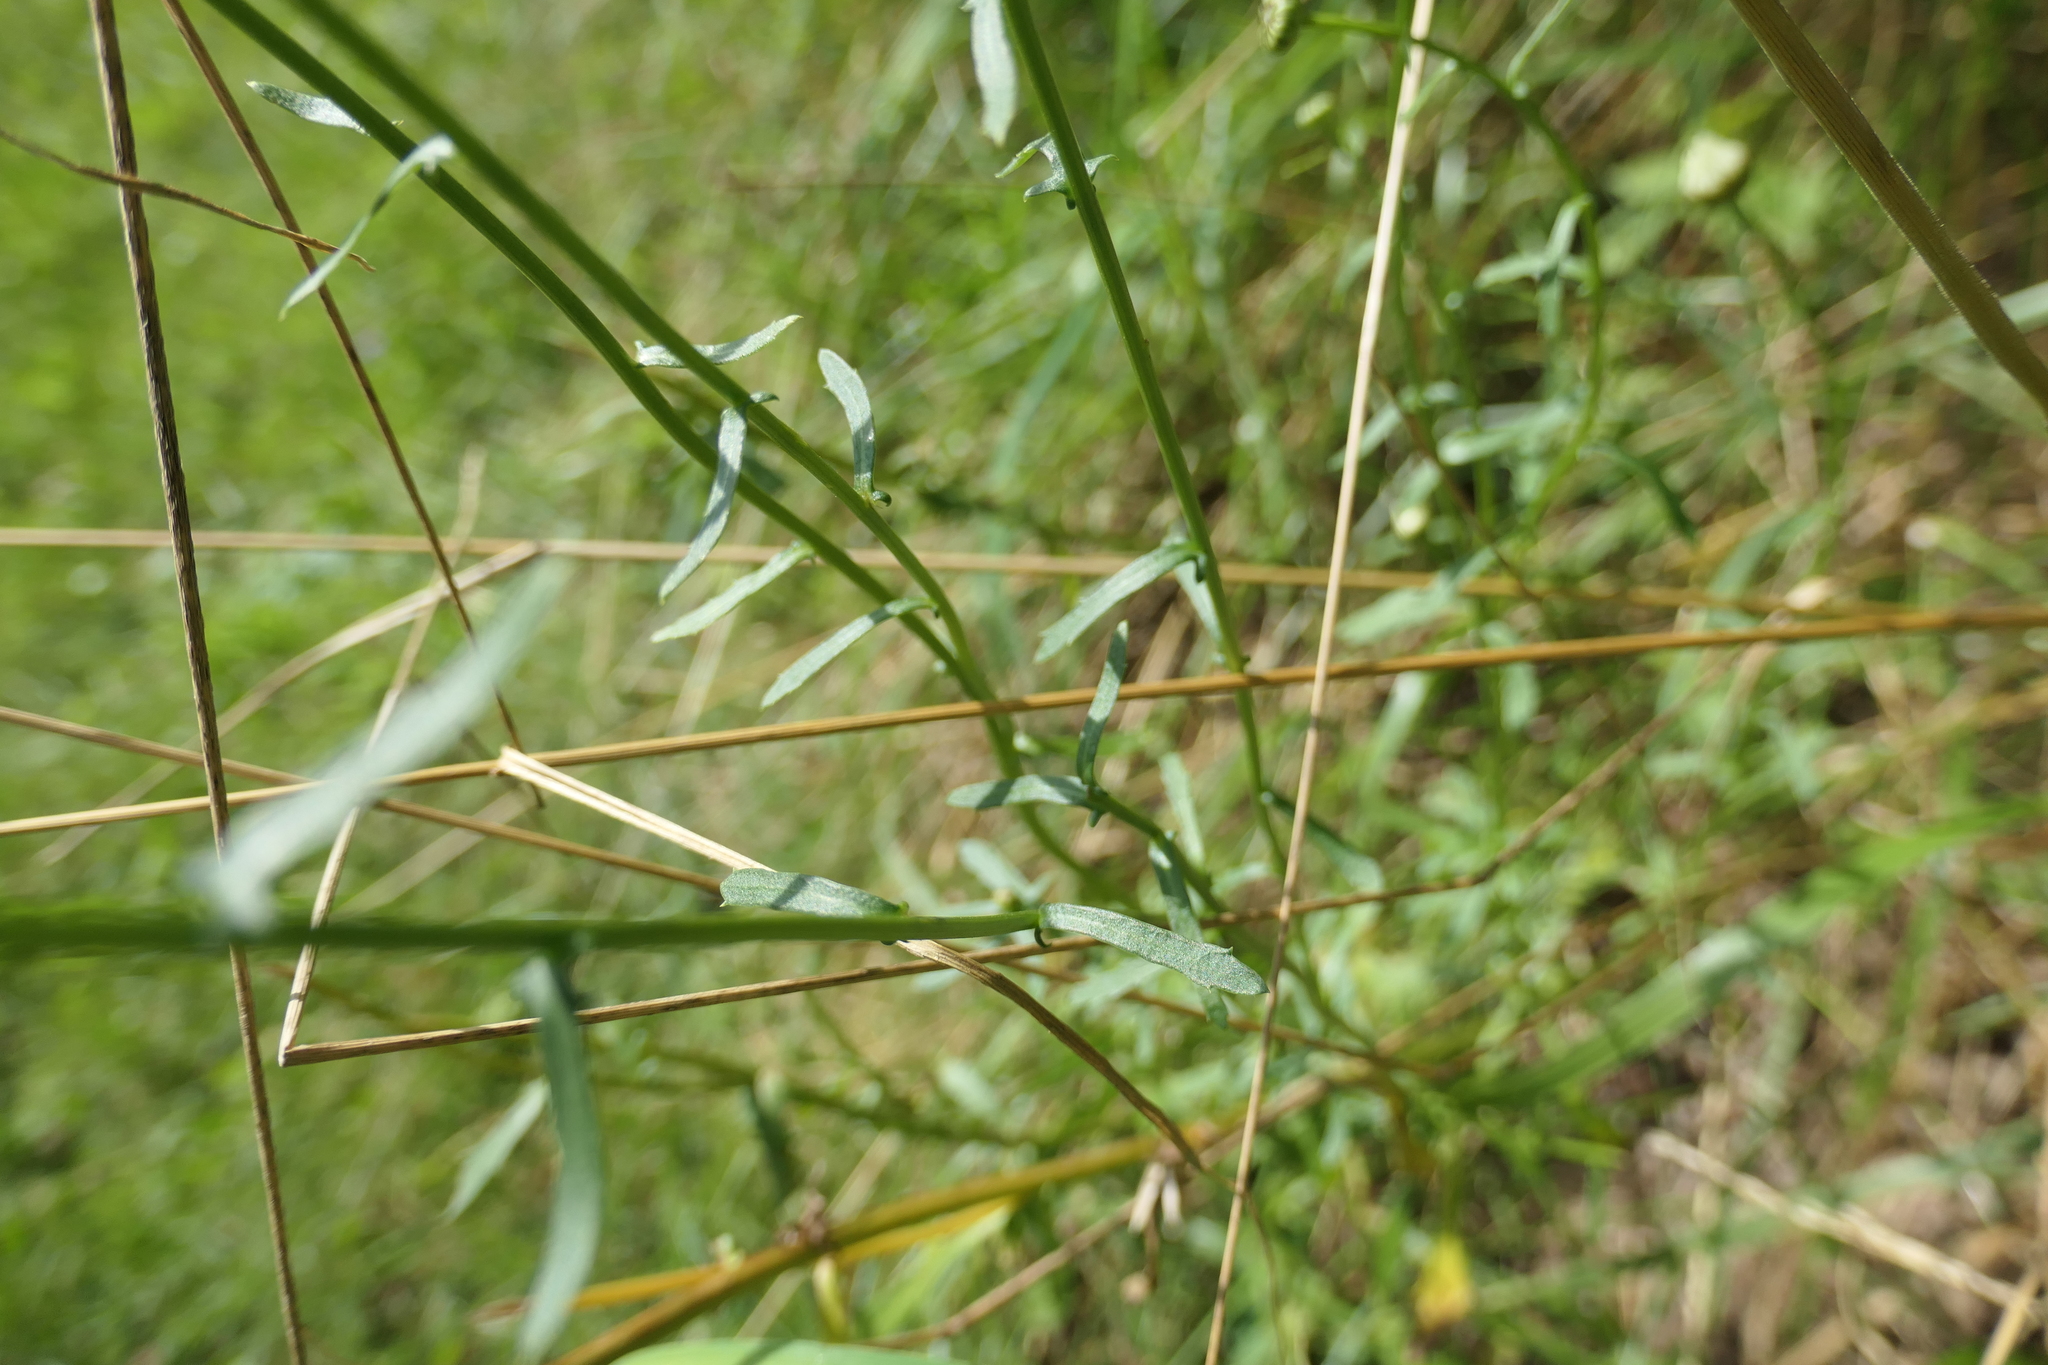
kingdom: Plantae
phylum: Tracheophyta
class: Magnoliopsida
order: Asterales
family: Asteraceae
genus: Leucanthemum
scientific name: Leucanthemum vulgare
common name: Oxeye daisy
